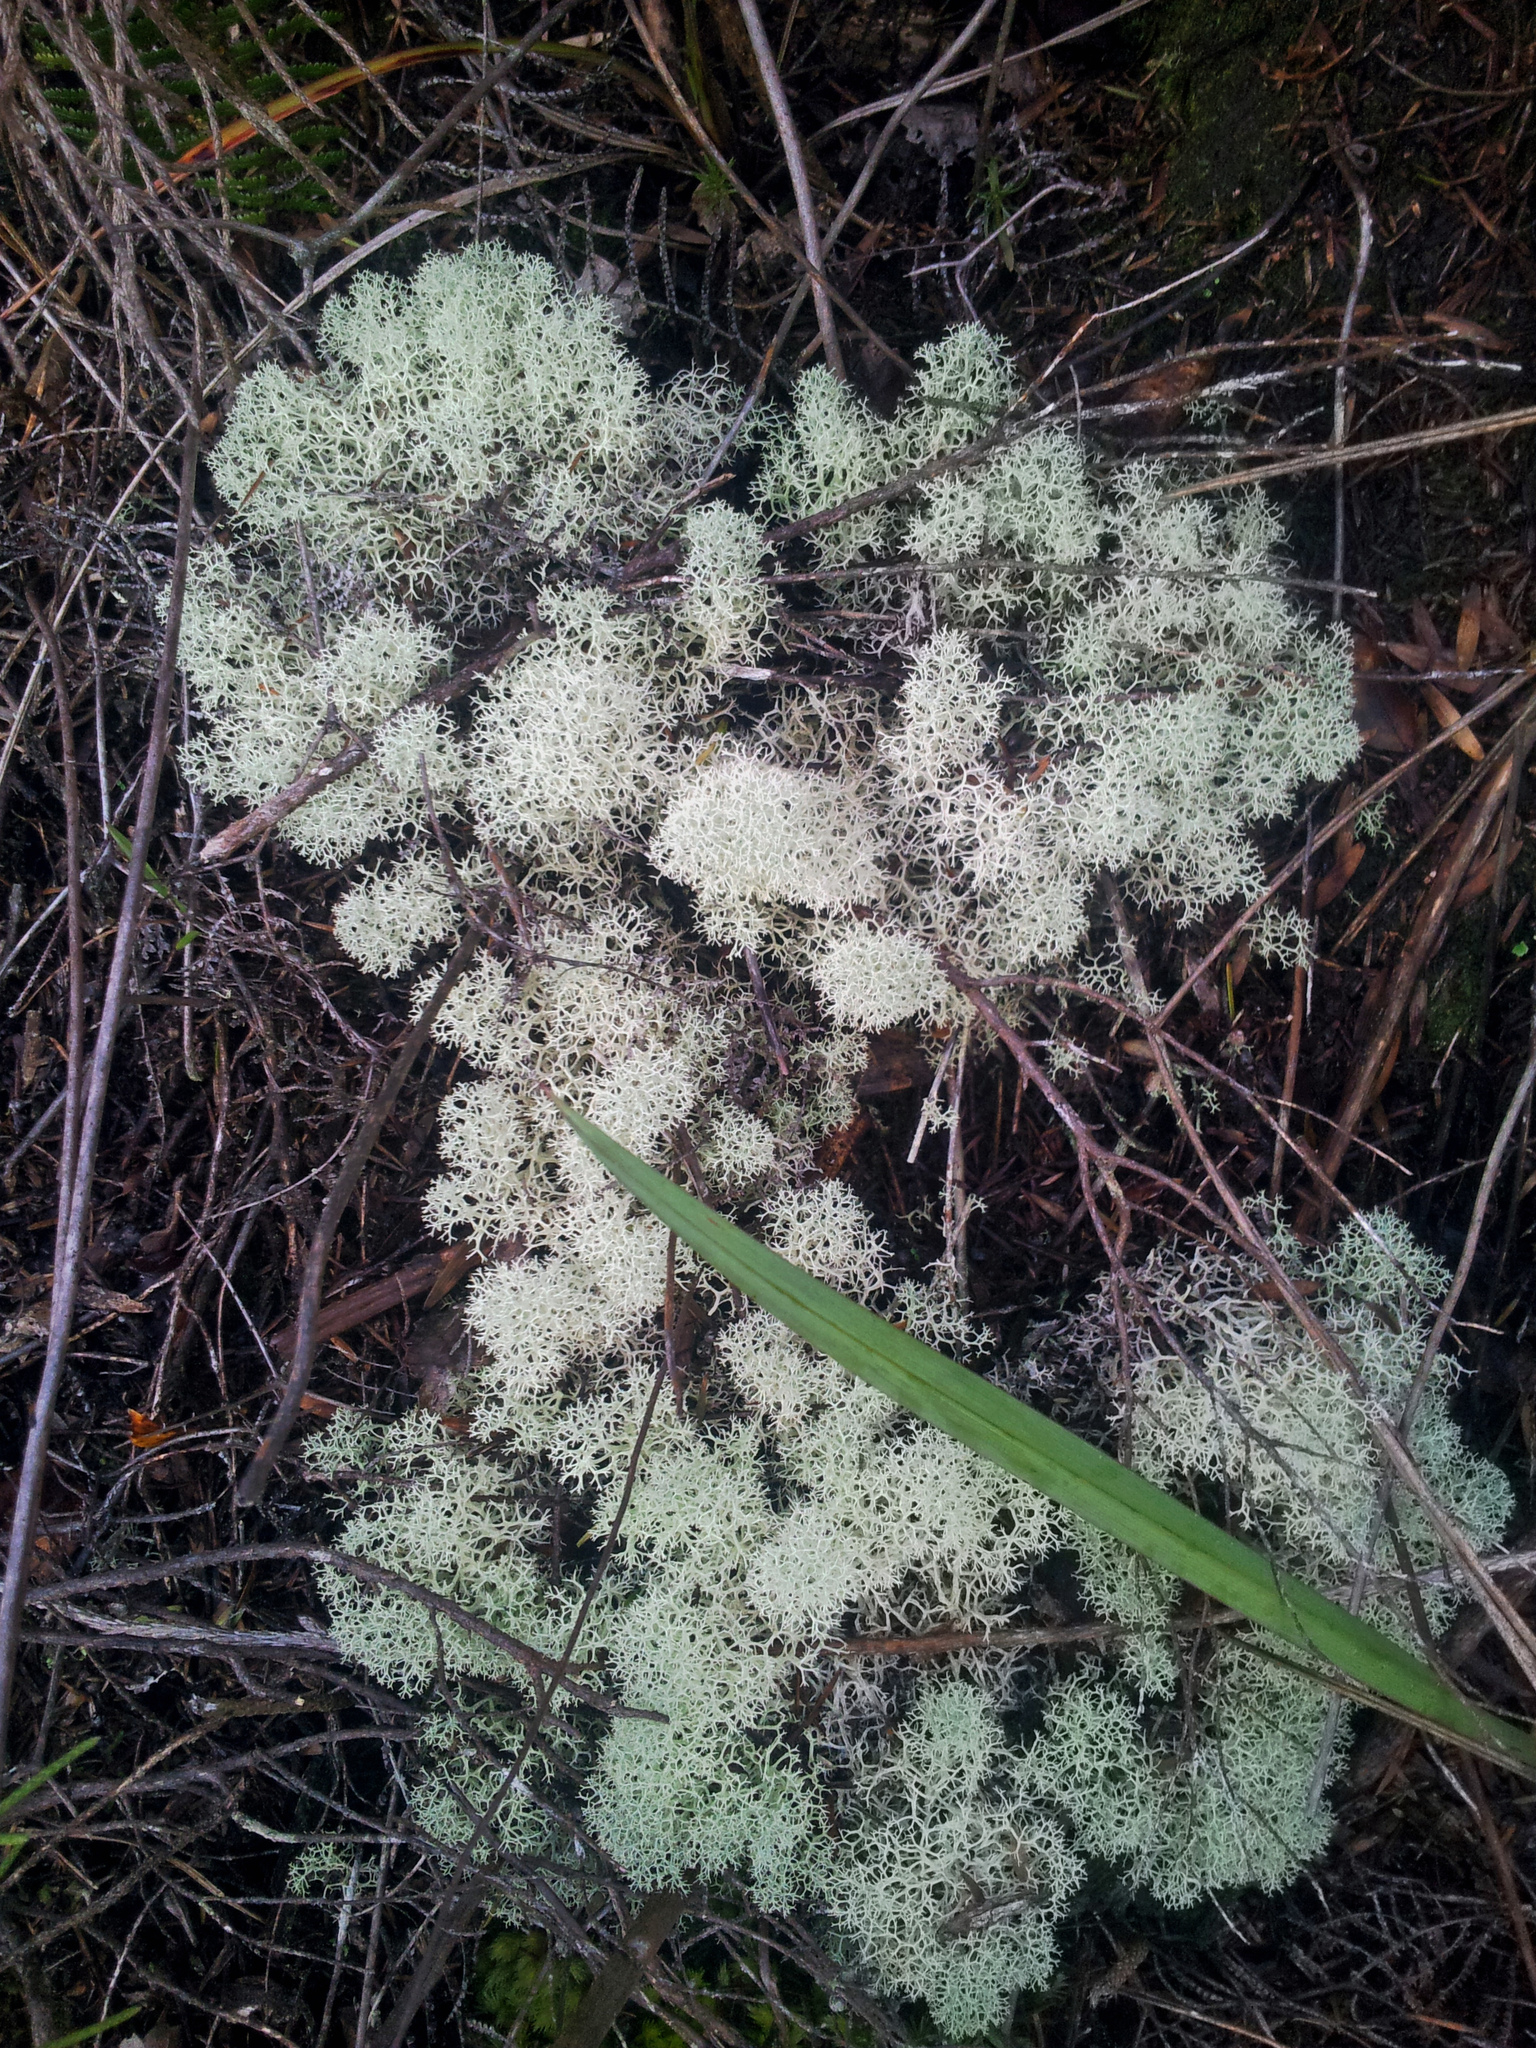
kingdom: Fungi
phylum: Ascomycota
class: Lecanoromycetes
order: Lecanorales
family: Cladoniaceae
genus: Cladonia
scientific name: Cladonia confusa
